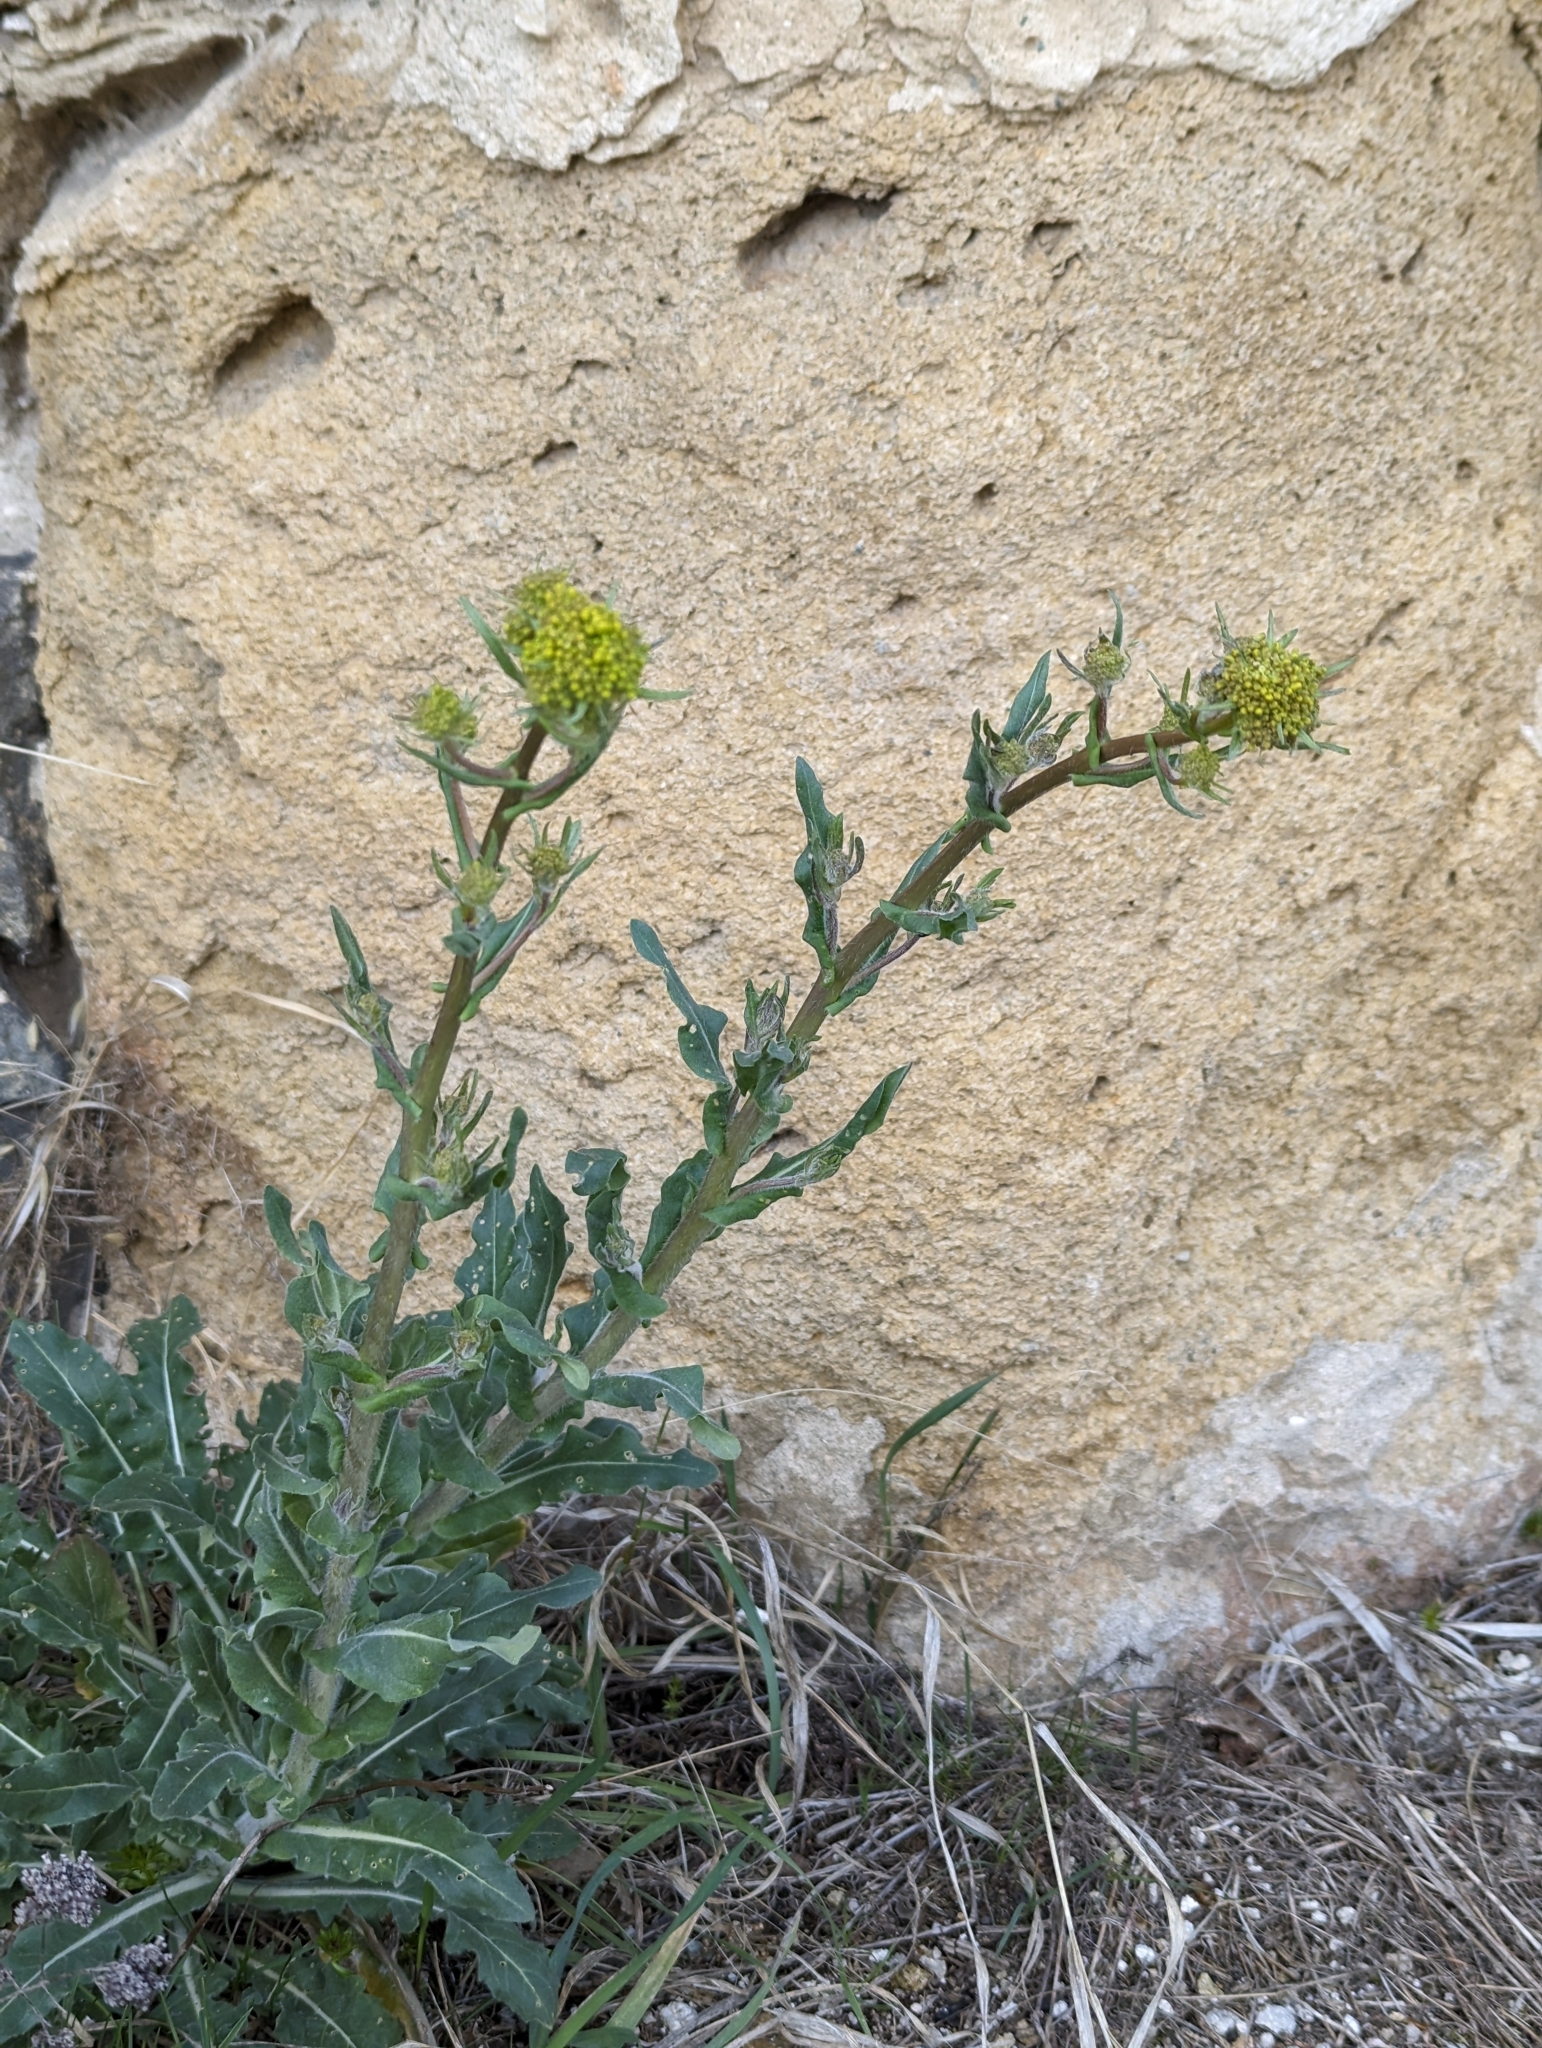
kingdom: Plantae
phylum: Tracheophyta
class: Magnoliopsida
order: Brassicales
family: Brassicaceae
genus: Isatis
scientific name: Isatis tinctoria
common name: Woad
